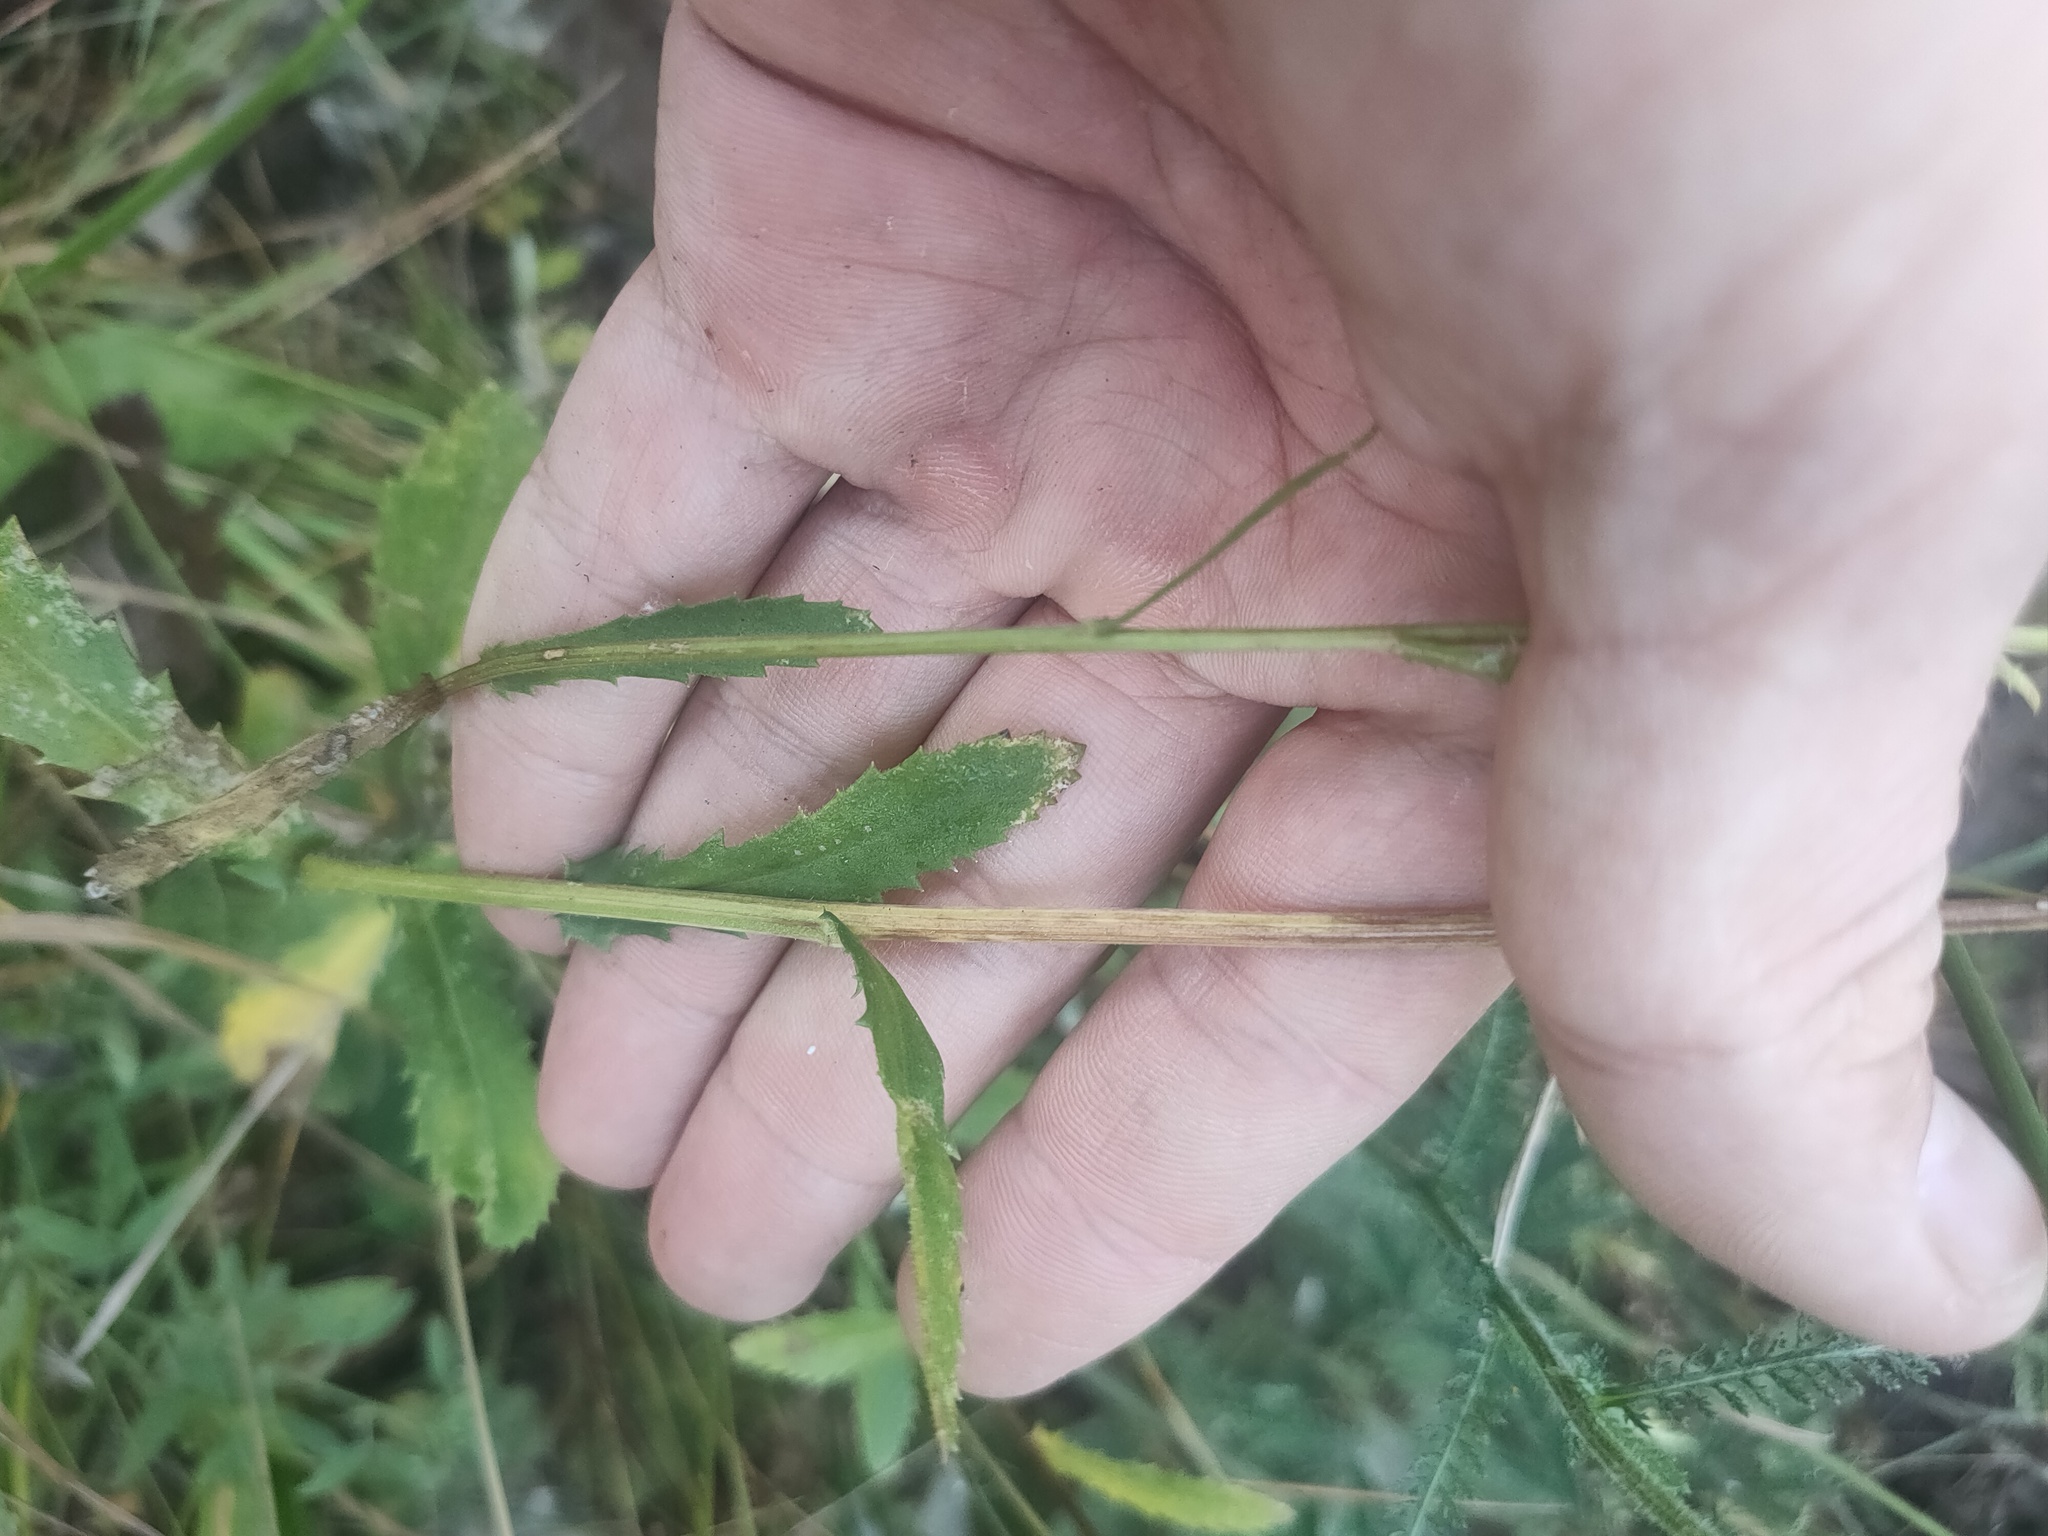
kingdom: Plantae
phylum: Tracheophyta
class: Magnoliopsida
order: Asterales
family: Asteraceae
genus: Leucanthemum
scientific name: Leucanthemum ircutianum
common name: Daisy
